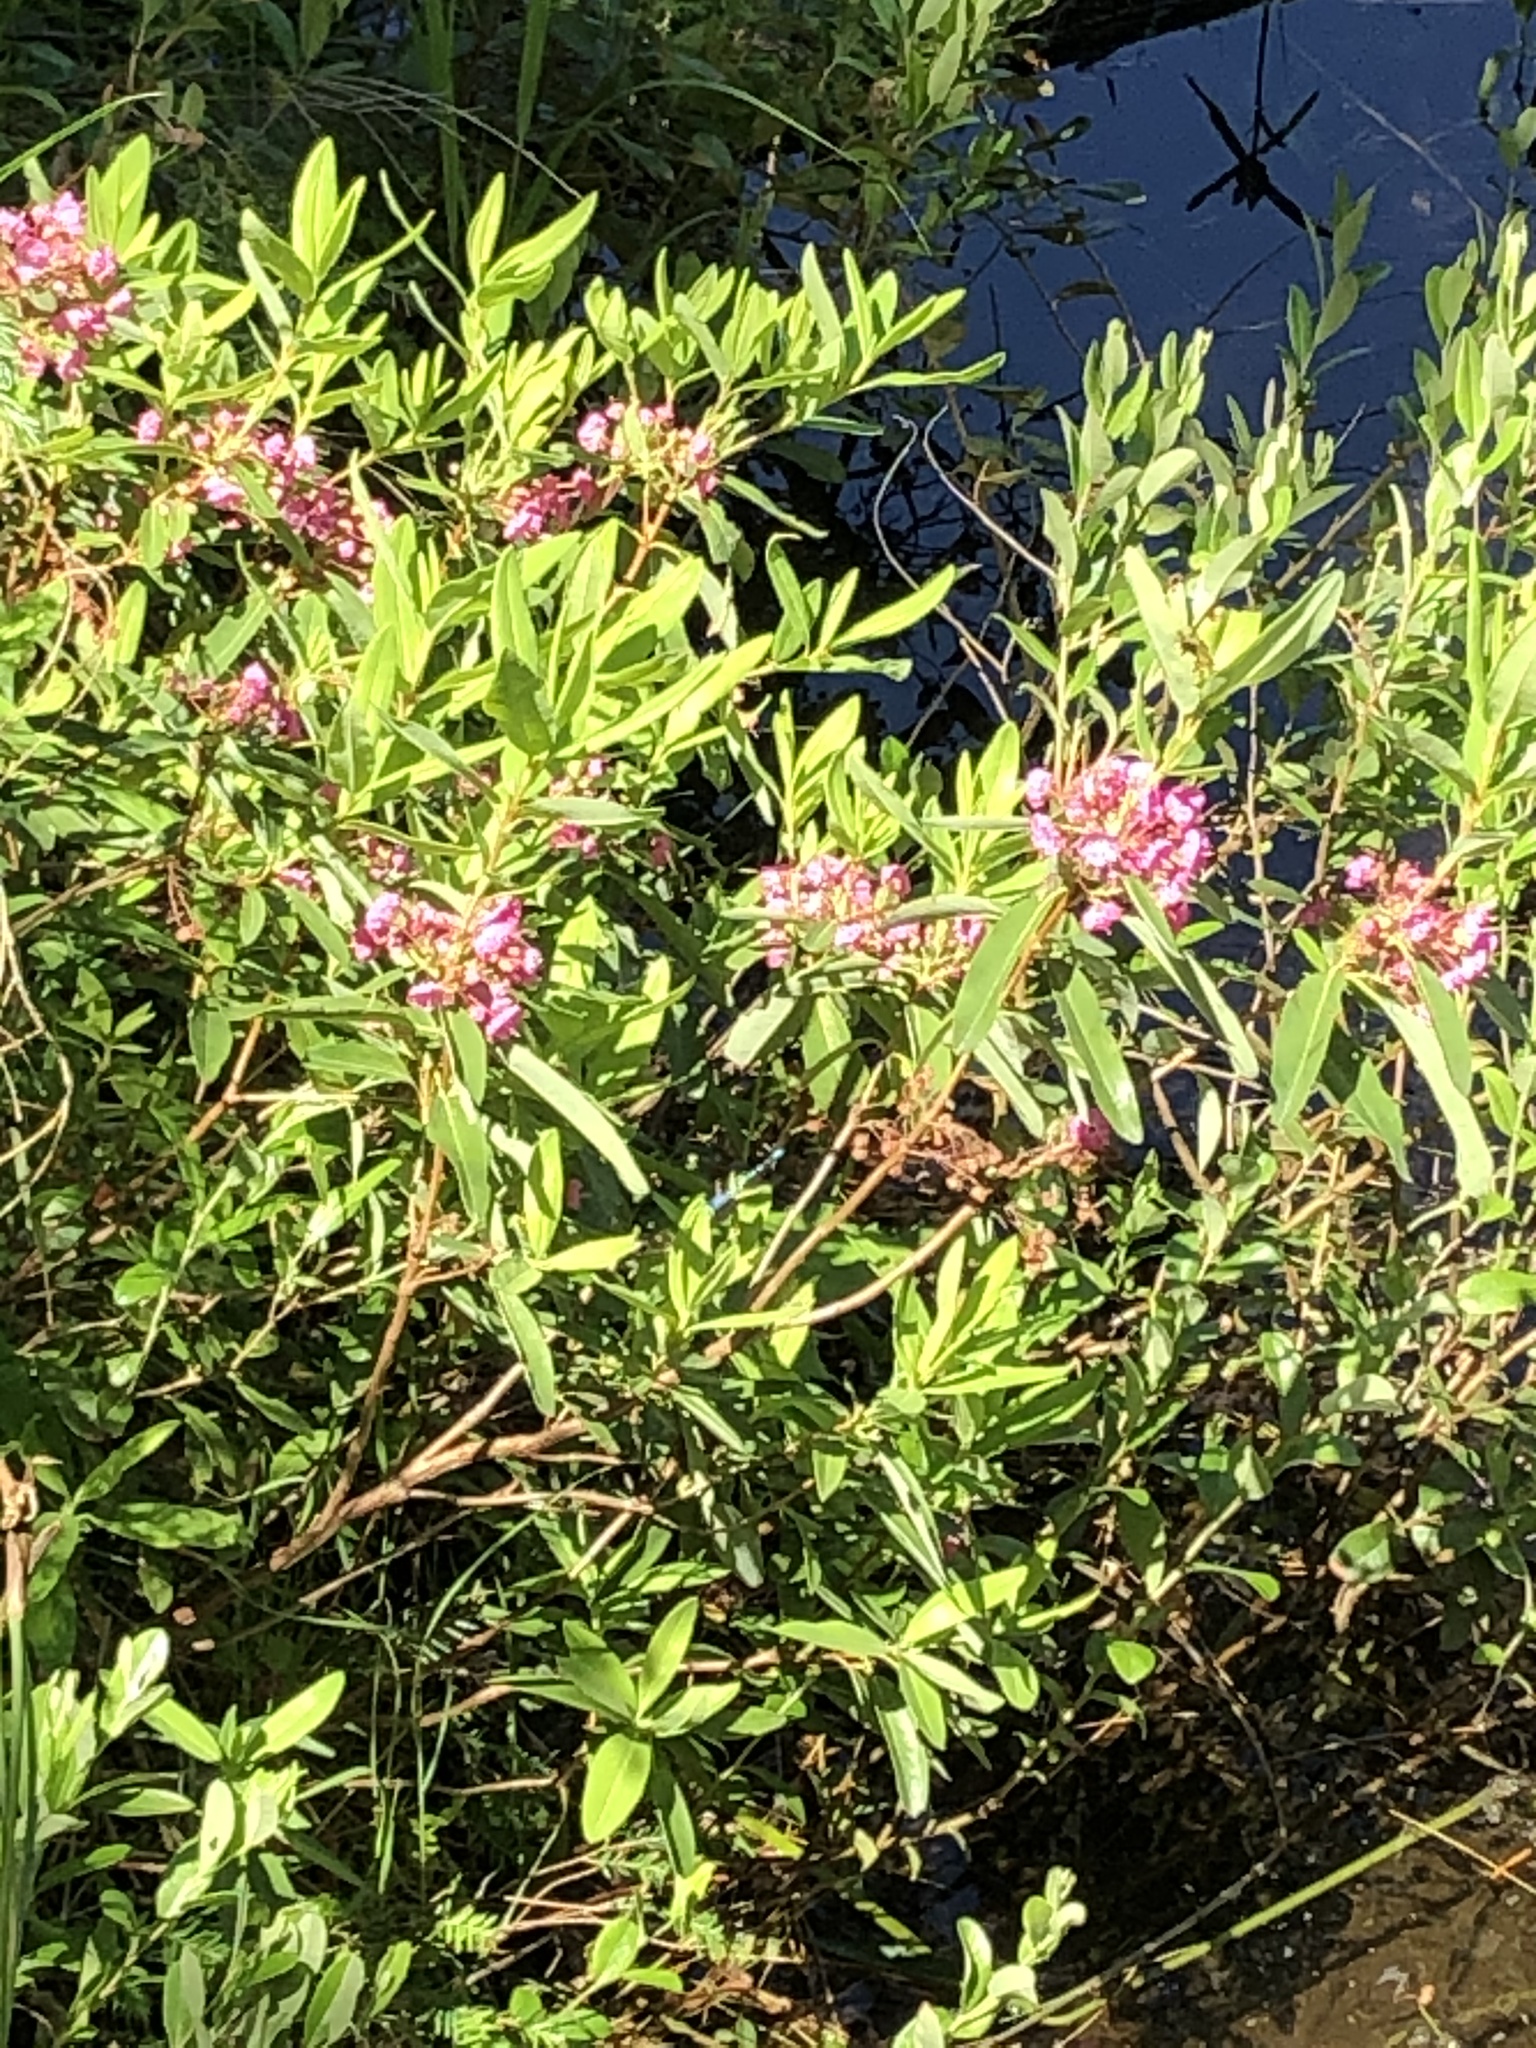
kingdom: Plantae
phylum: Tracheophyta
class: Magnoliopsida
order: Ericales
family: Ericaceae
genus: Kalmia
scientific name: Kalmia angustifolia
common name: Sheep-laurel
